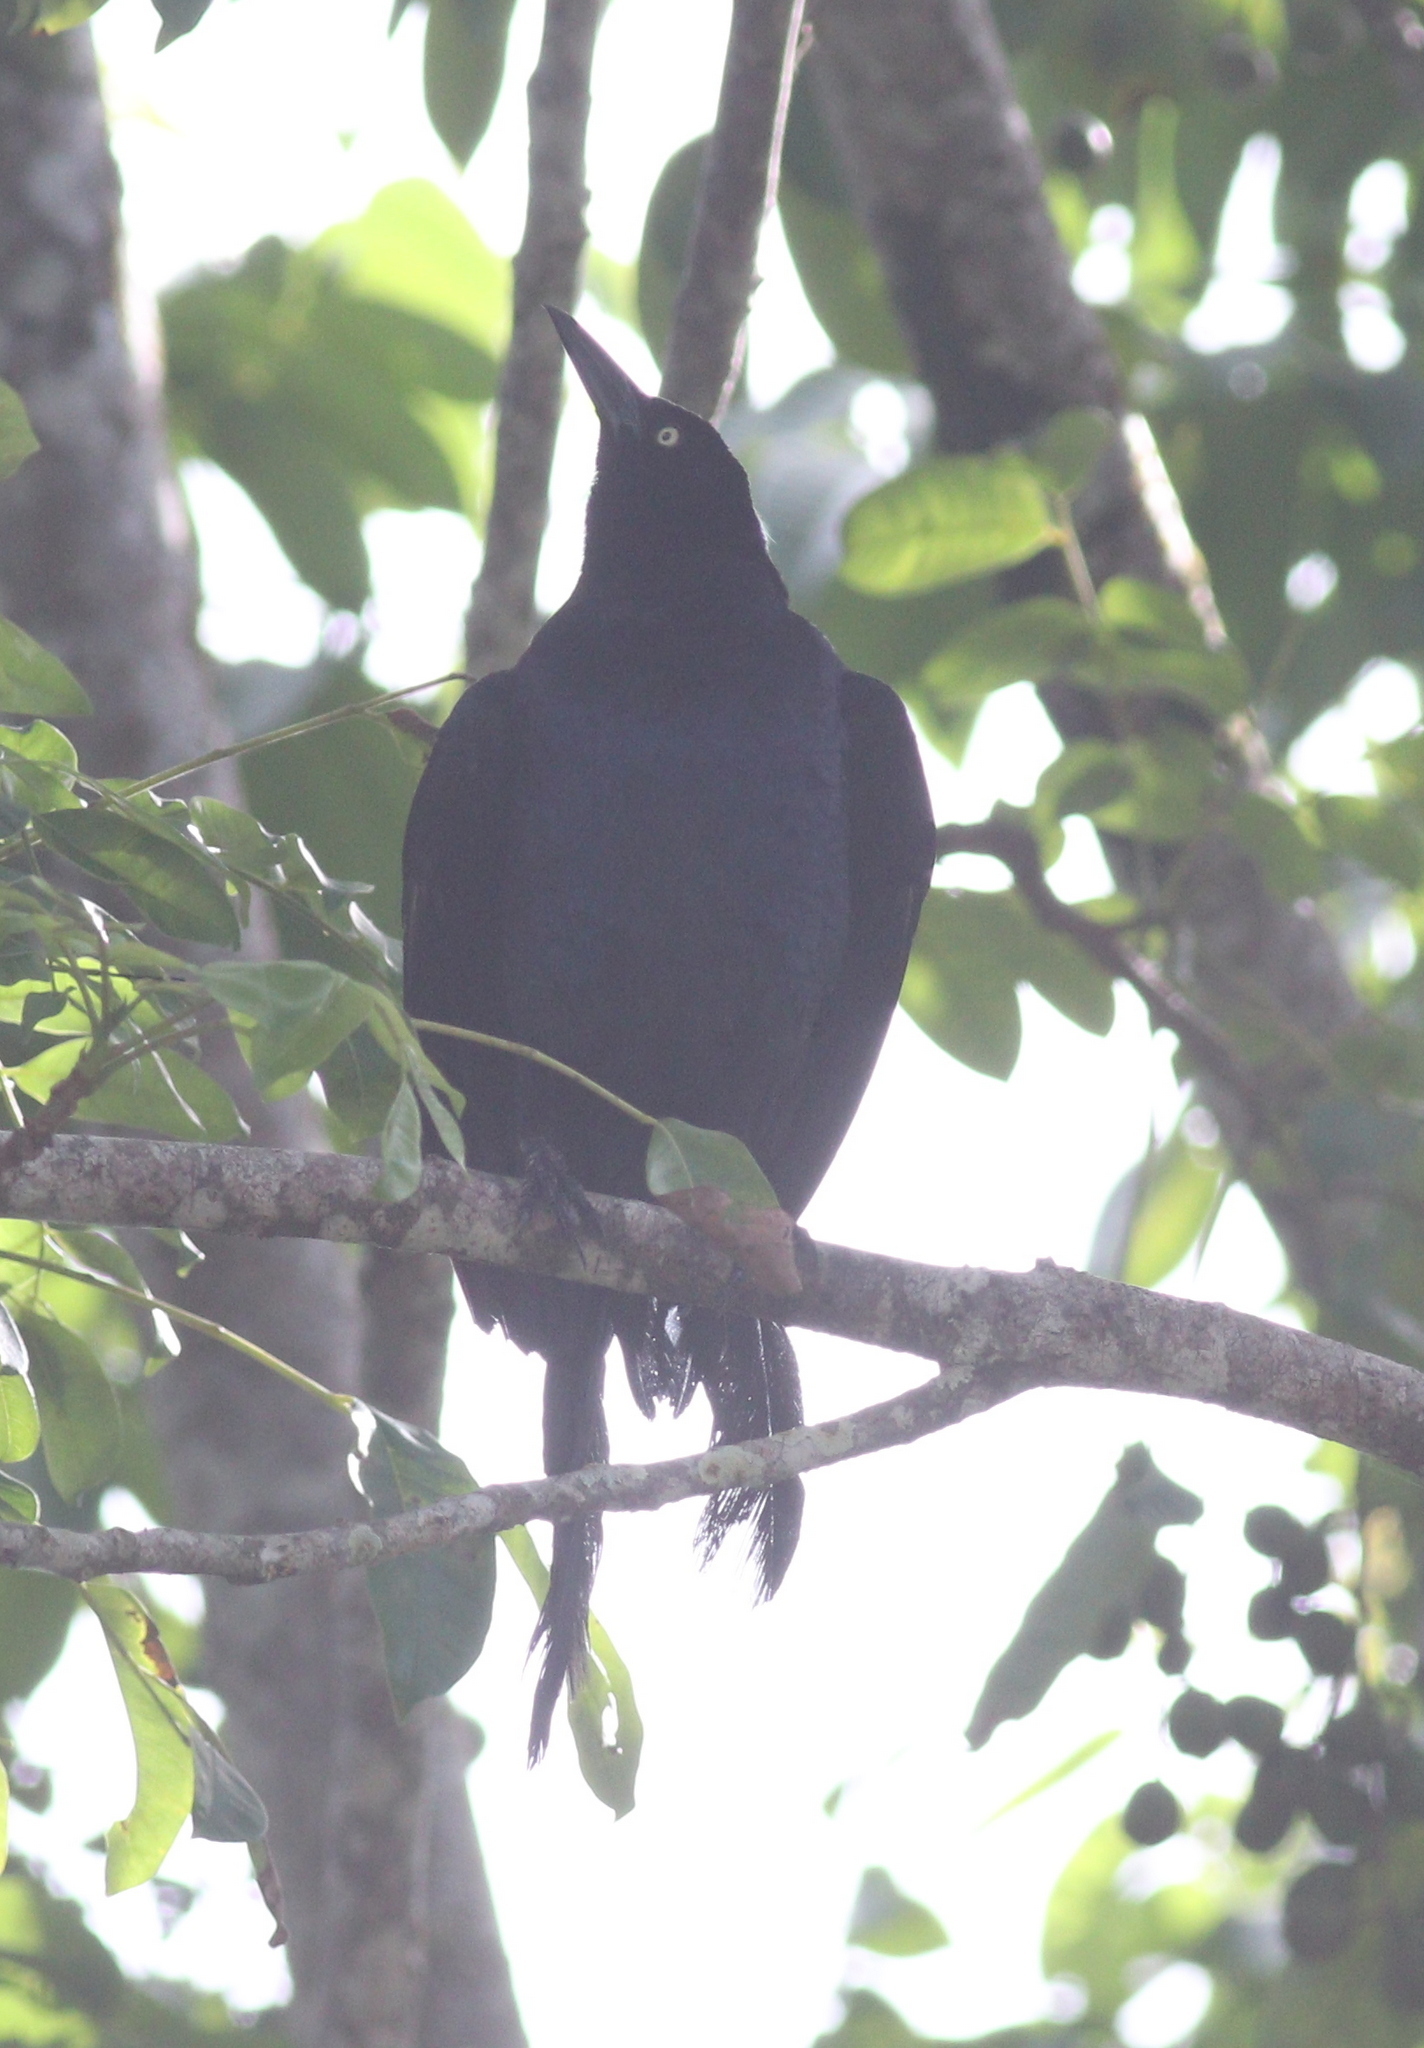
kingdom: Animalia
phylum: Chordata
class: Aves
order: Passeriformes
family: Icteridae
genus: Quiscalus
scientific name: Quiscalus mexicanus
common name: Great-tailed grackle
